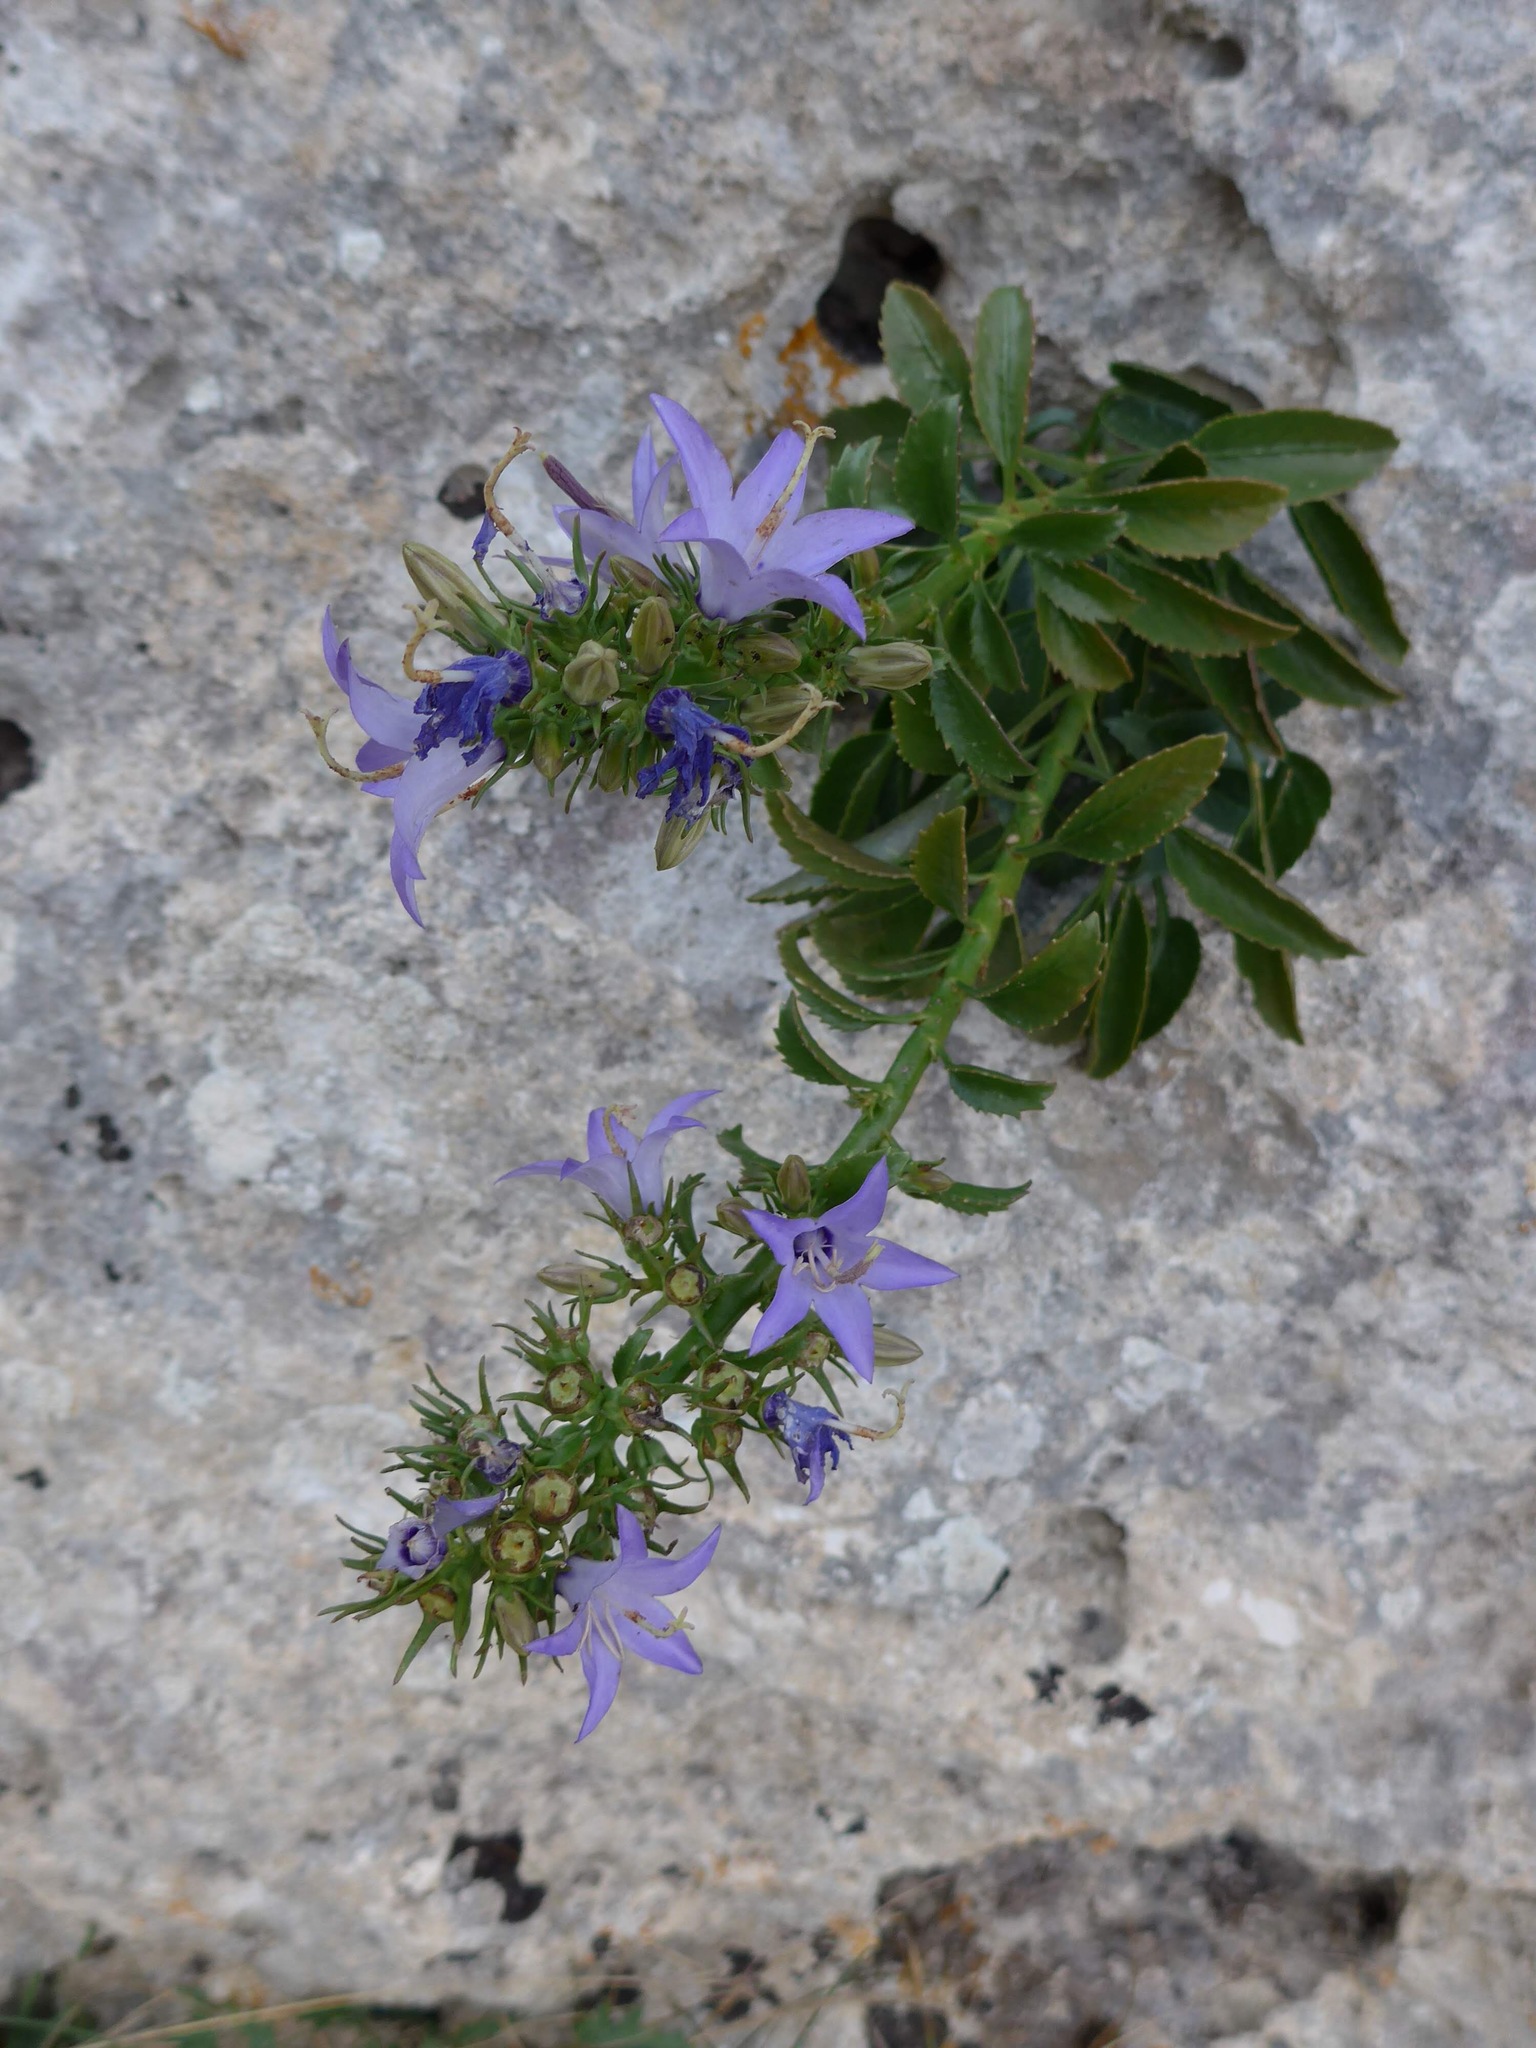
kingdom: Plantae
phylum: Tracheophyta
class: Magnoliopsida
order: Asterales
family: Campanulaceae
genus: Campanula
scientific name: Campanula versicolor
